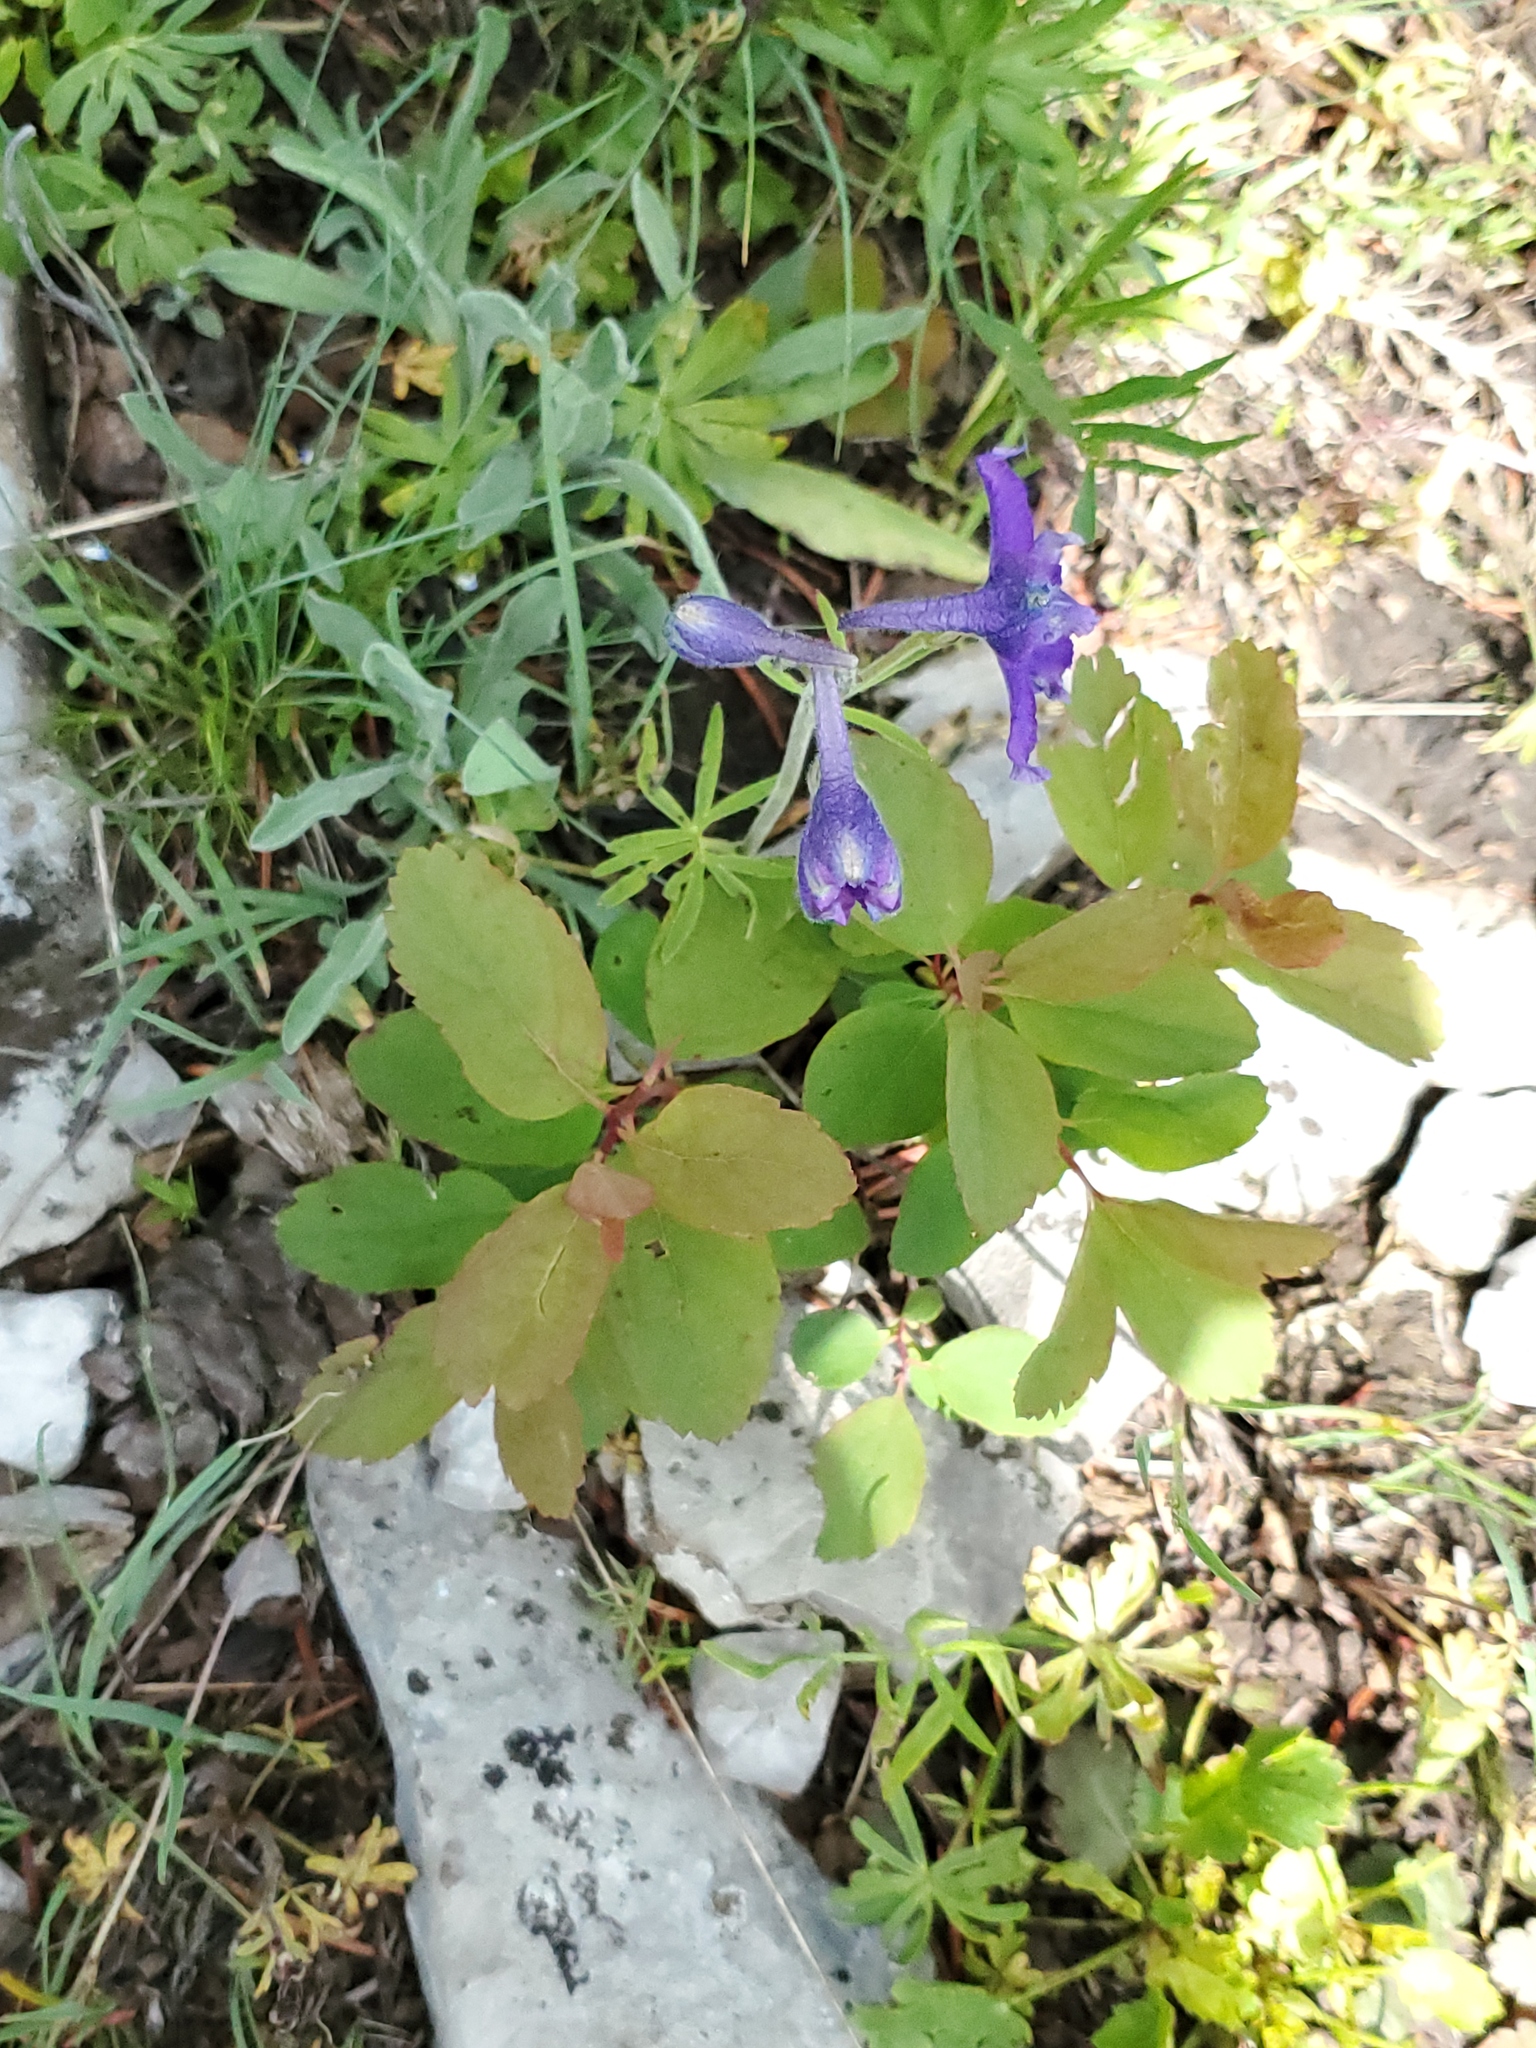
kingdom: Plantae
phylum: Tracheophyta
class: Magnoliopsida
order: Ranunculales
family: Ranunculaceae
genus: Delphinium
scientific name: Delphinium bicolor
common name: Low larkspur
